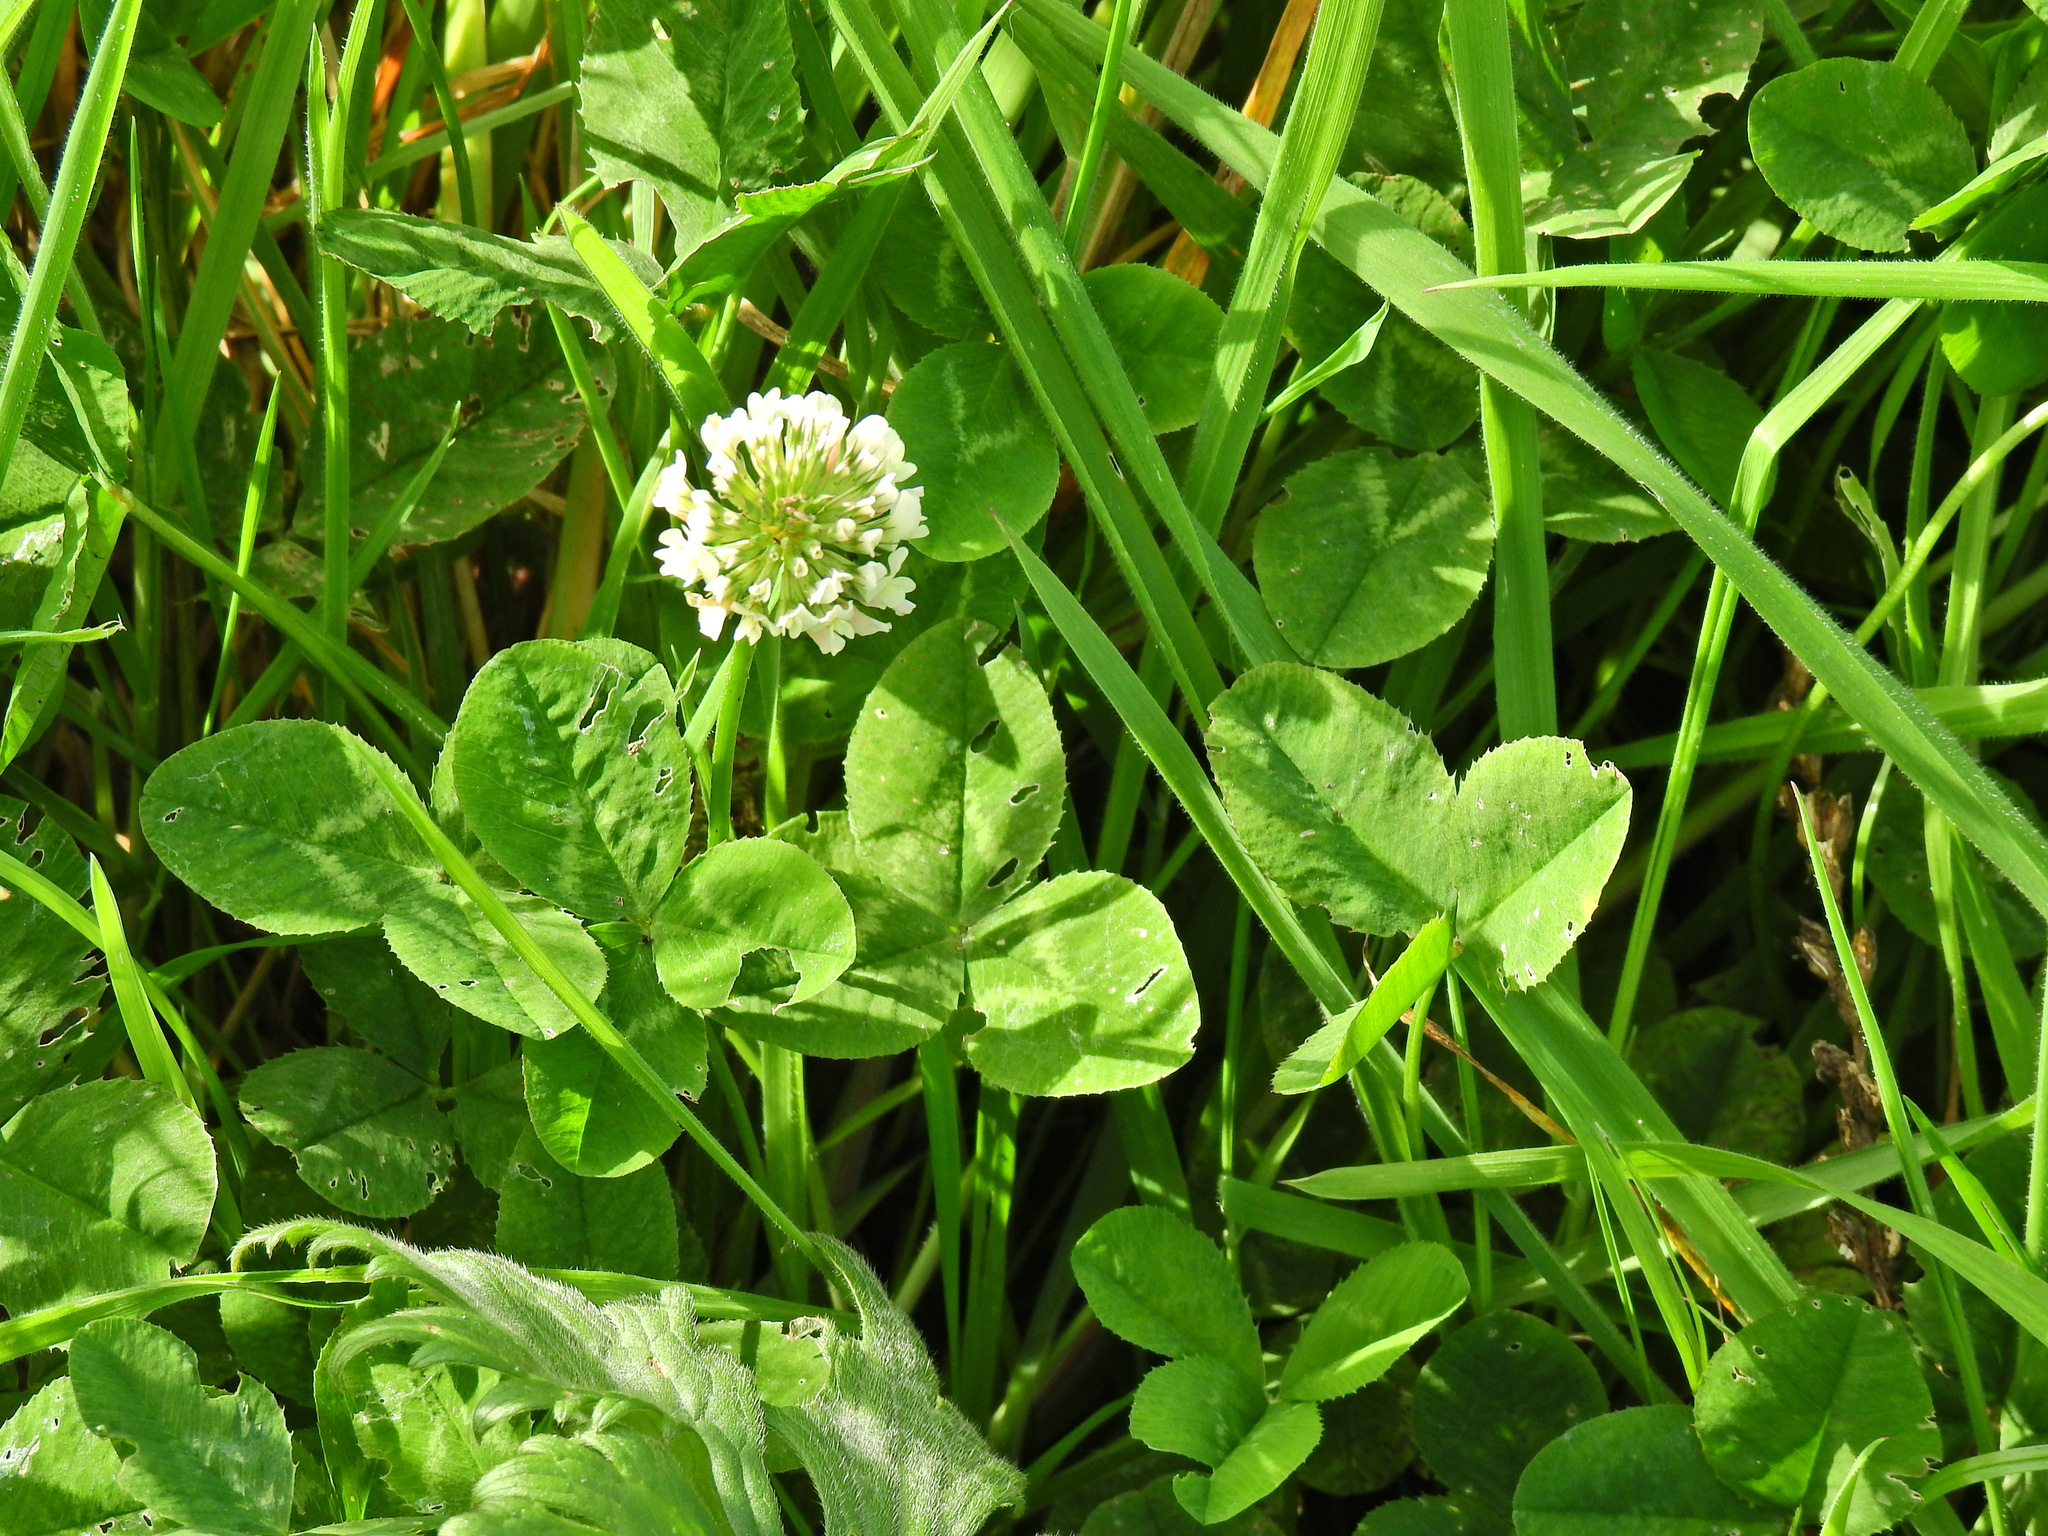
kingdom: Plantae
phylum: Tracheophyta
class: Magnoliopsida
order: Fabales
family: Fabaceae
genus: Trifolium
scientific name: Trifolium repens
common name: White clover
